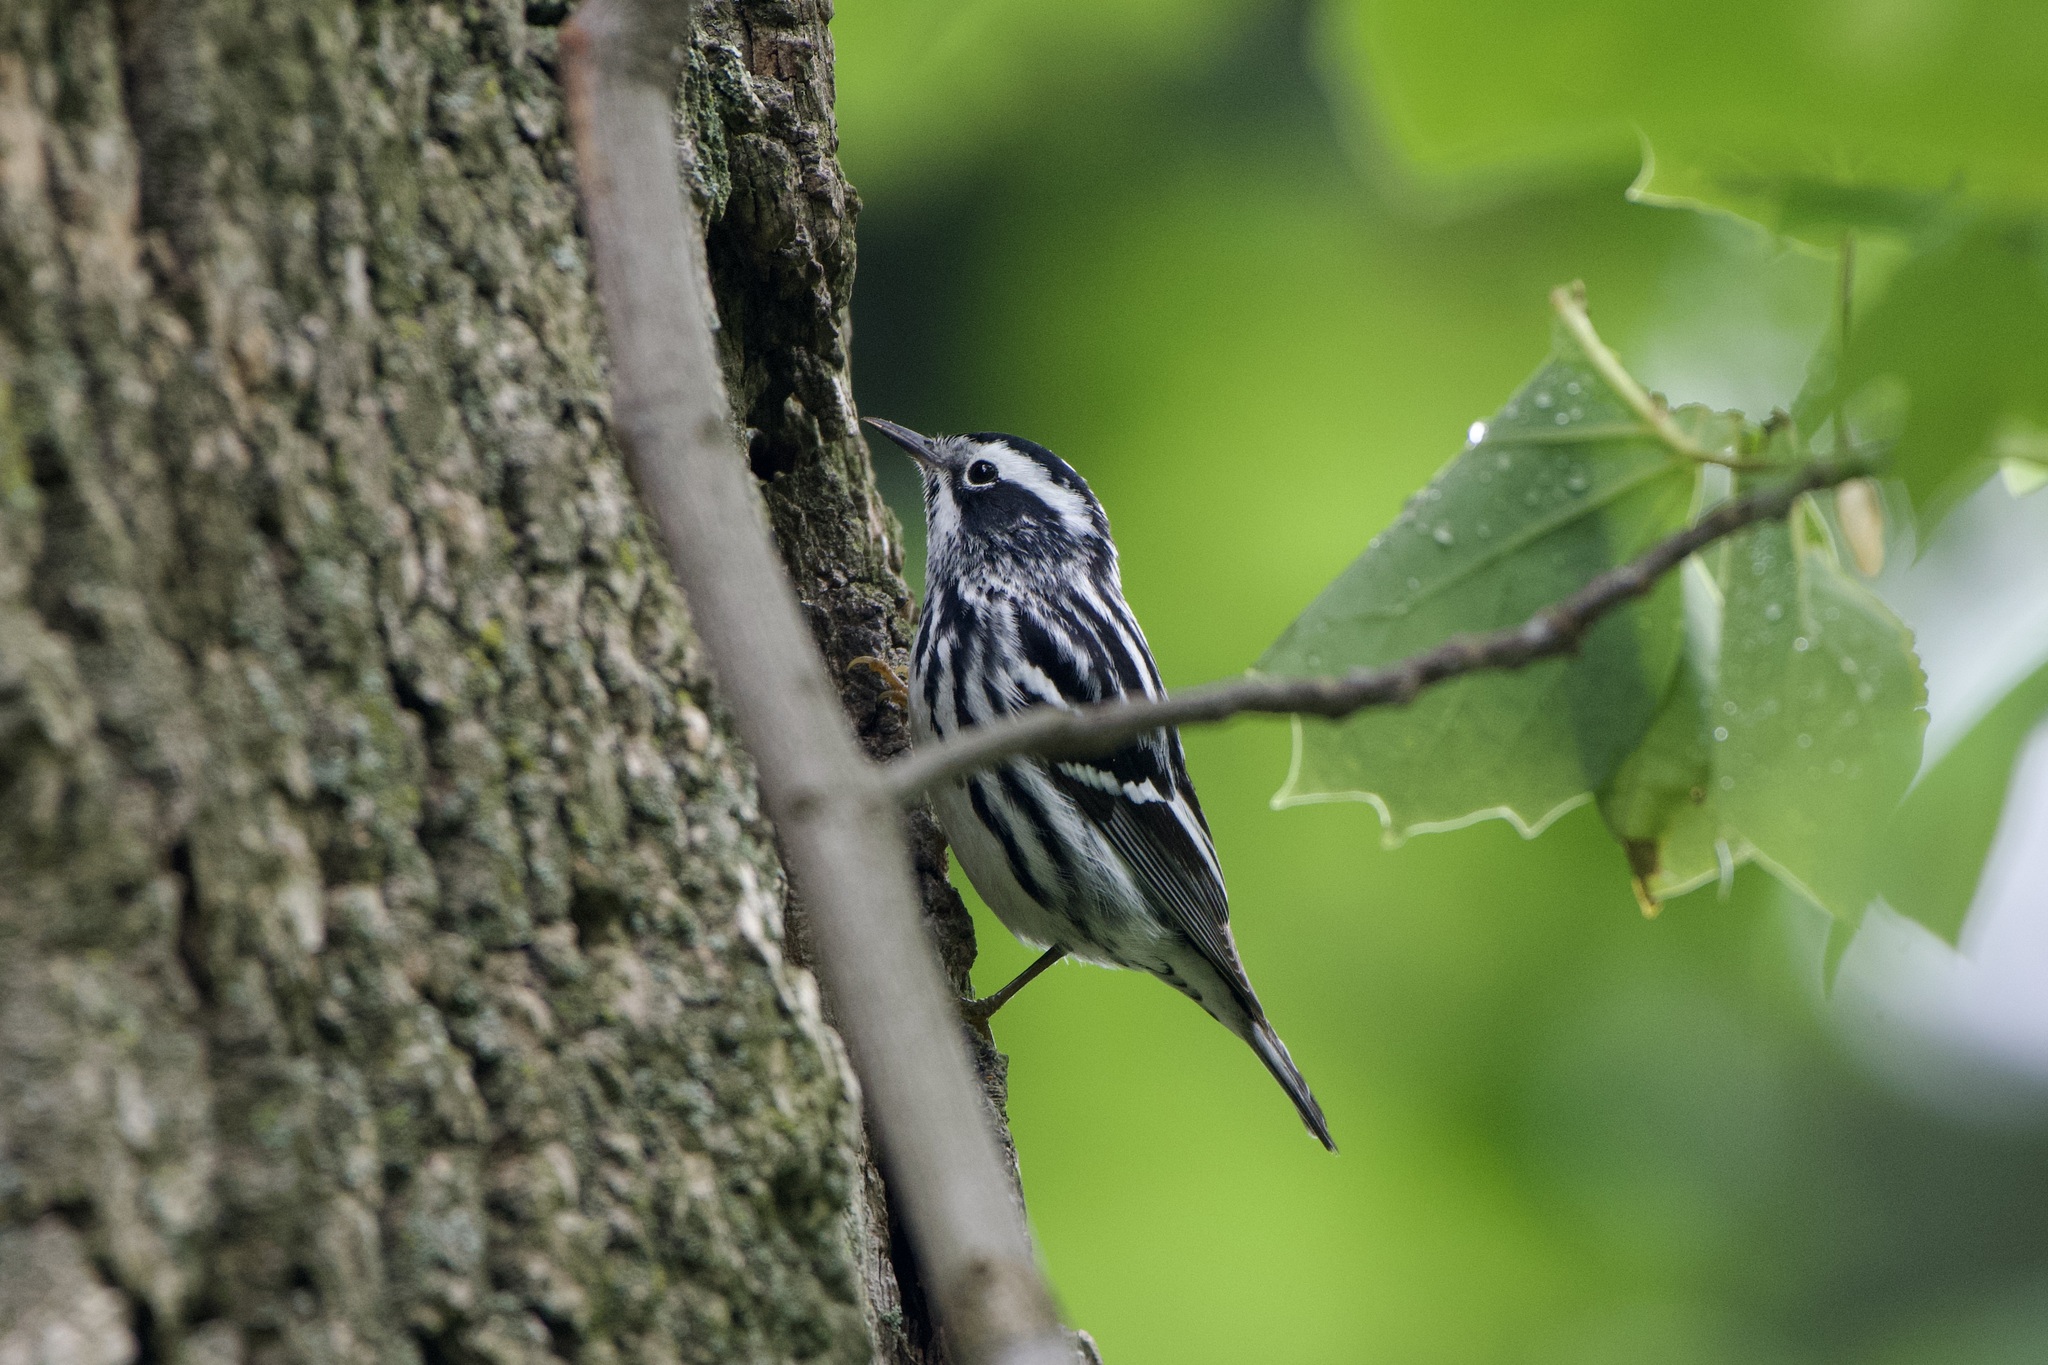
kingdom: Animalia
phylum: Chordata
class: Aves
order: Passeriformes
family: Parulidae
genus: Mniotilta
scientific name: Mniotilta varia
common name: Black-and-white warbler
